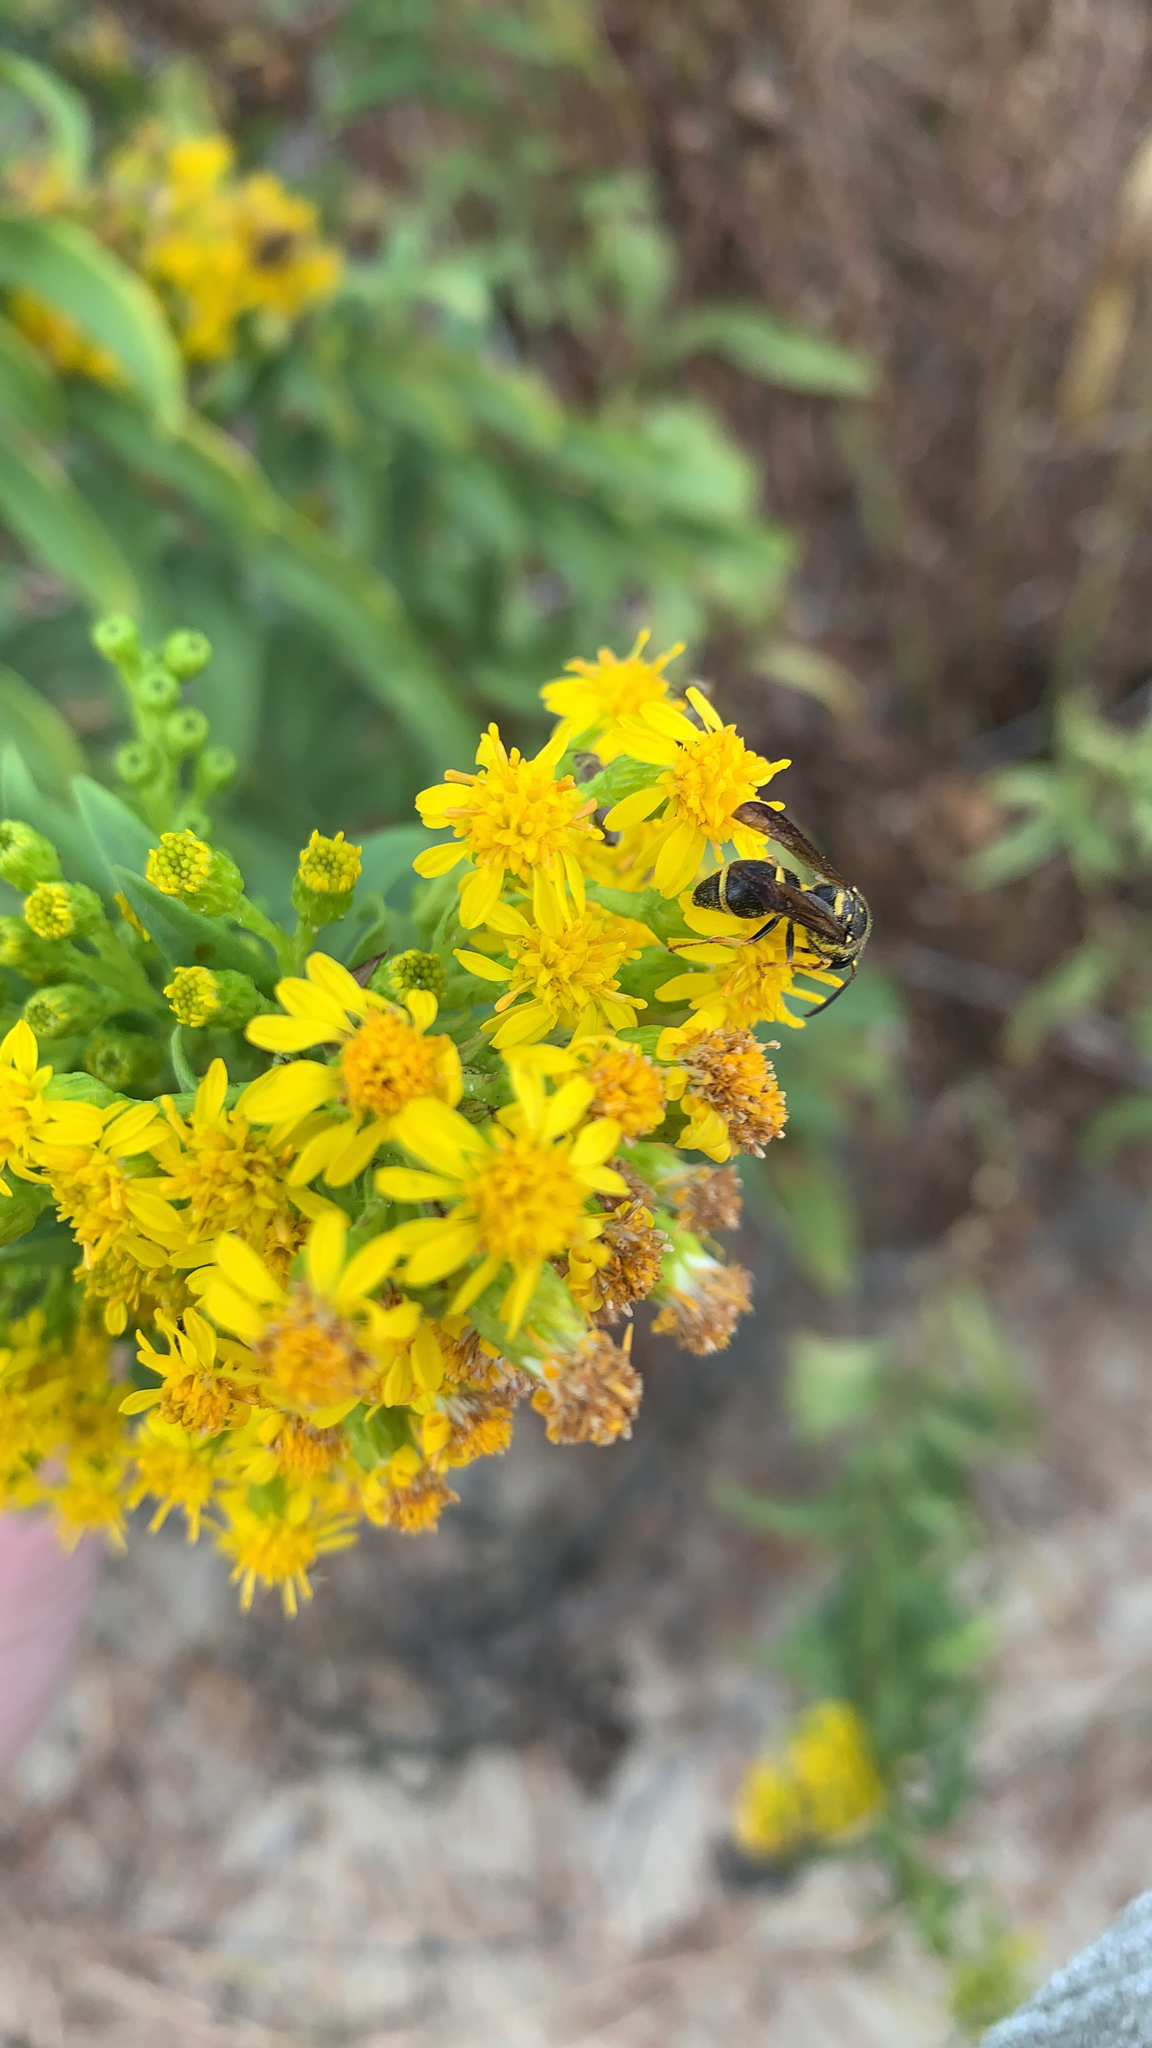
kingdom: Animalia
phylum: Arthropoda
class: Insecta
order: Hymenoptera
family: Vespidae
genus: Ancistrocerus
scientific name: Ancistrocerus campestris
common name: Smiling mason wasp
